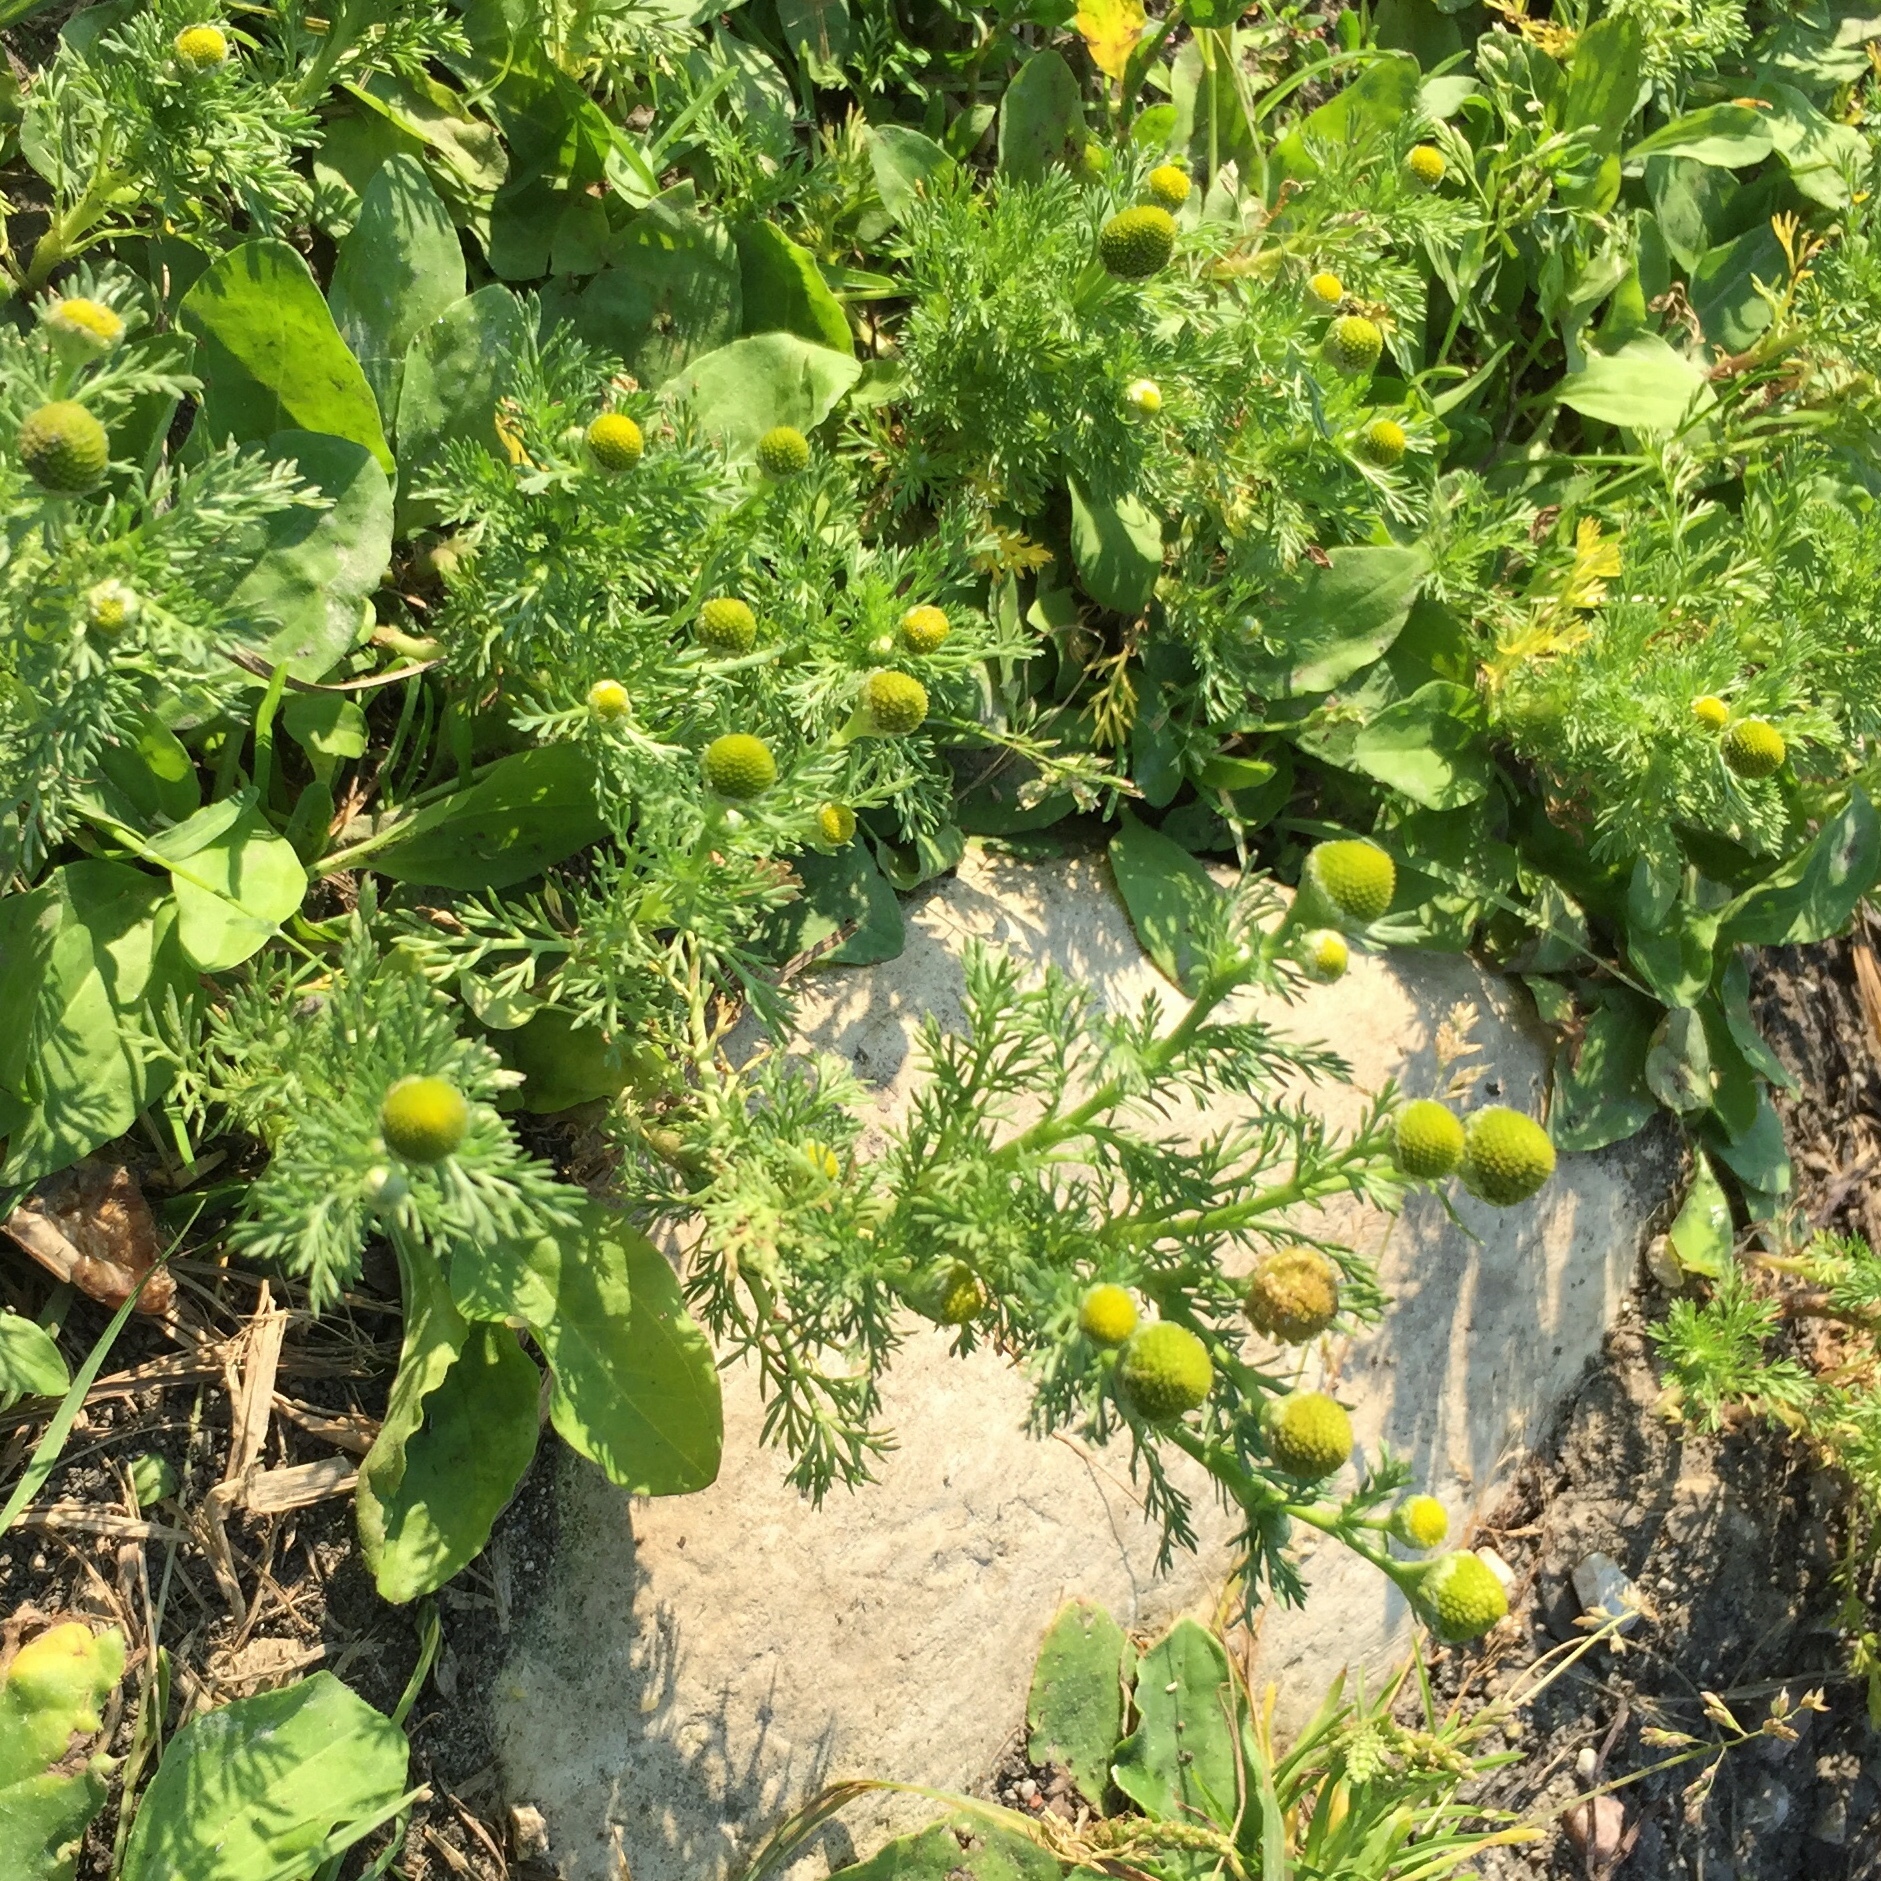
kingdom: Plantae
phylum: Tracheophyta
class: Magnoliopsida
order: Asterales
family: Asteraceae
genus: Matricaria
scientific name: Matricaria discoidea
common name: Disc mayweed
